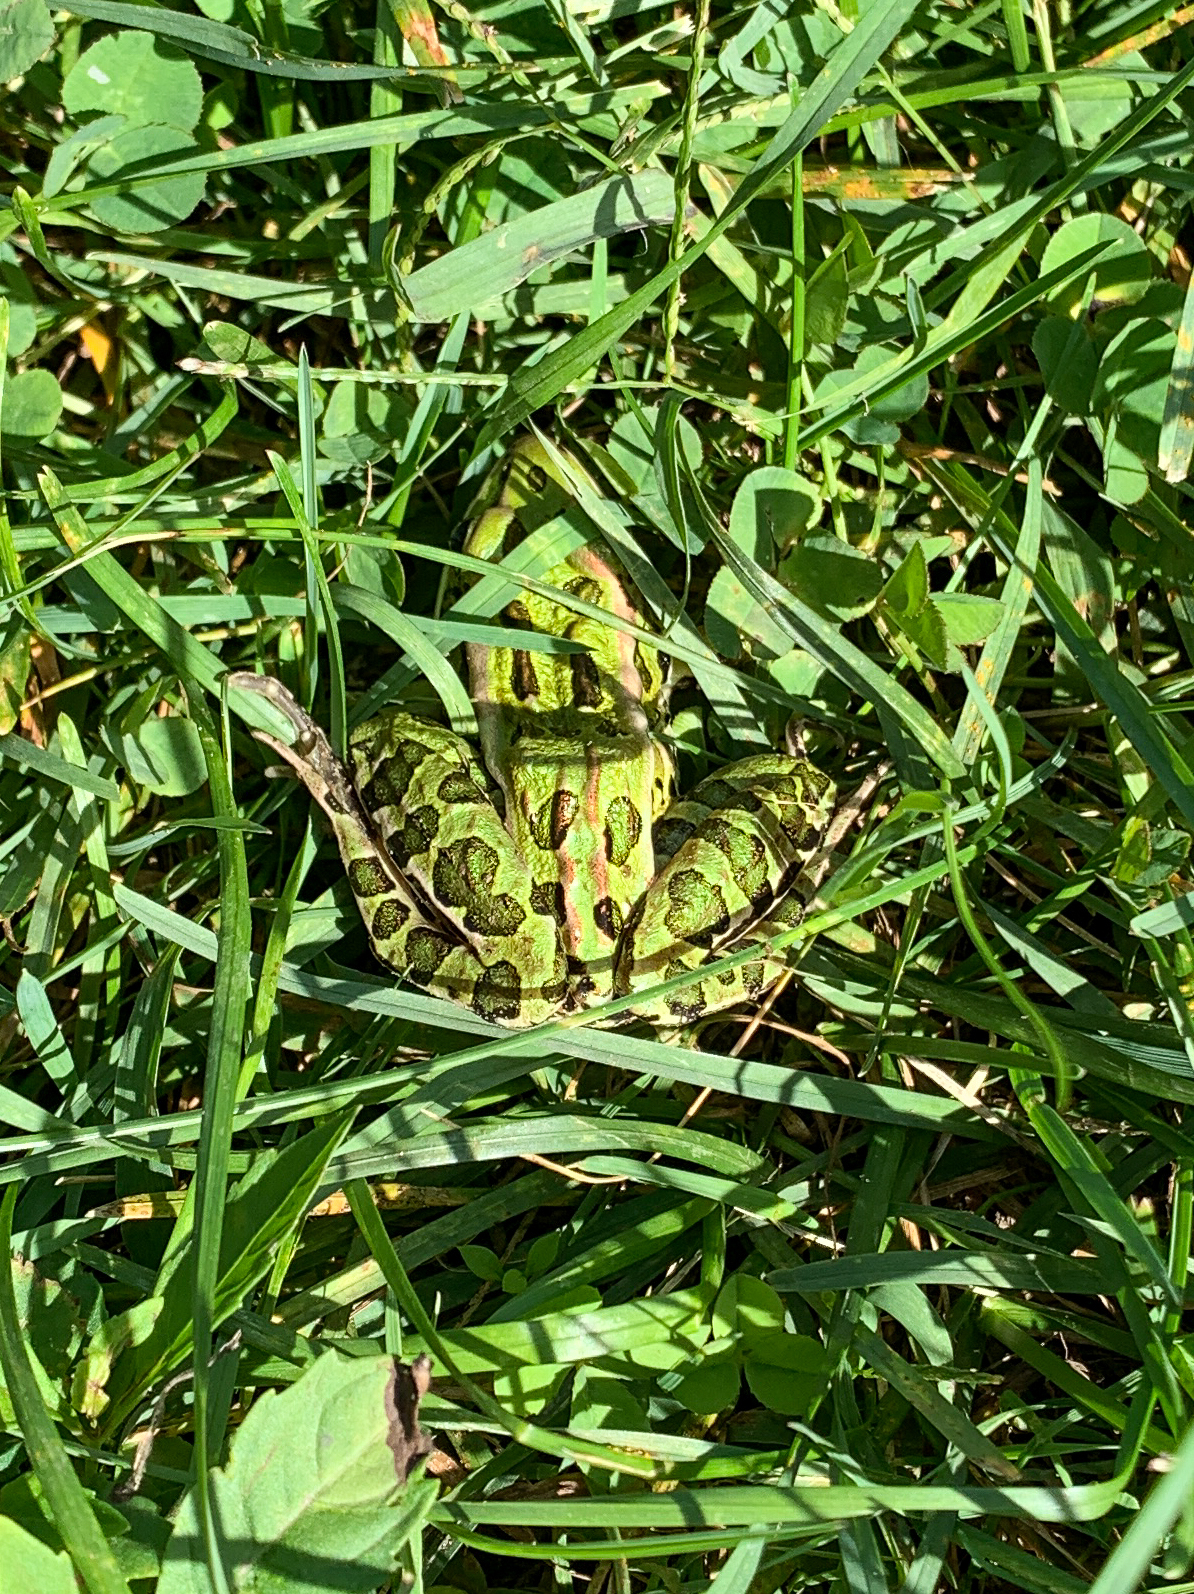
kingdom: Animalia
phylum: Chordata
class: Amphibia
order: Anura
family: Ranidae
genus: Lithobates
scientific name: Lithobates pipiens
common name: Northern leopard frog
